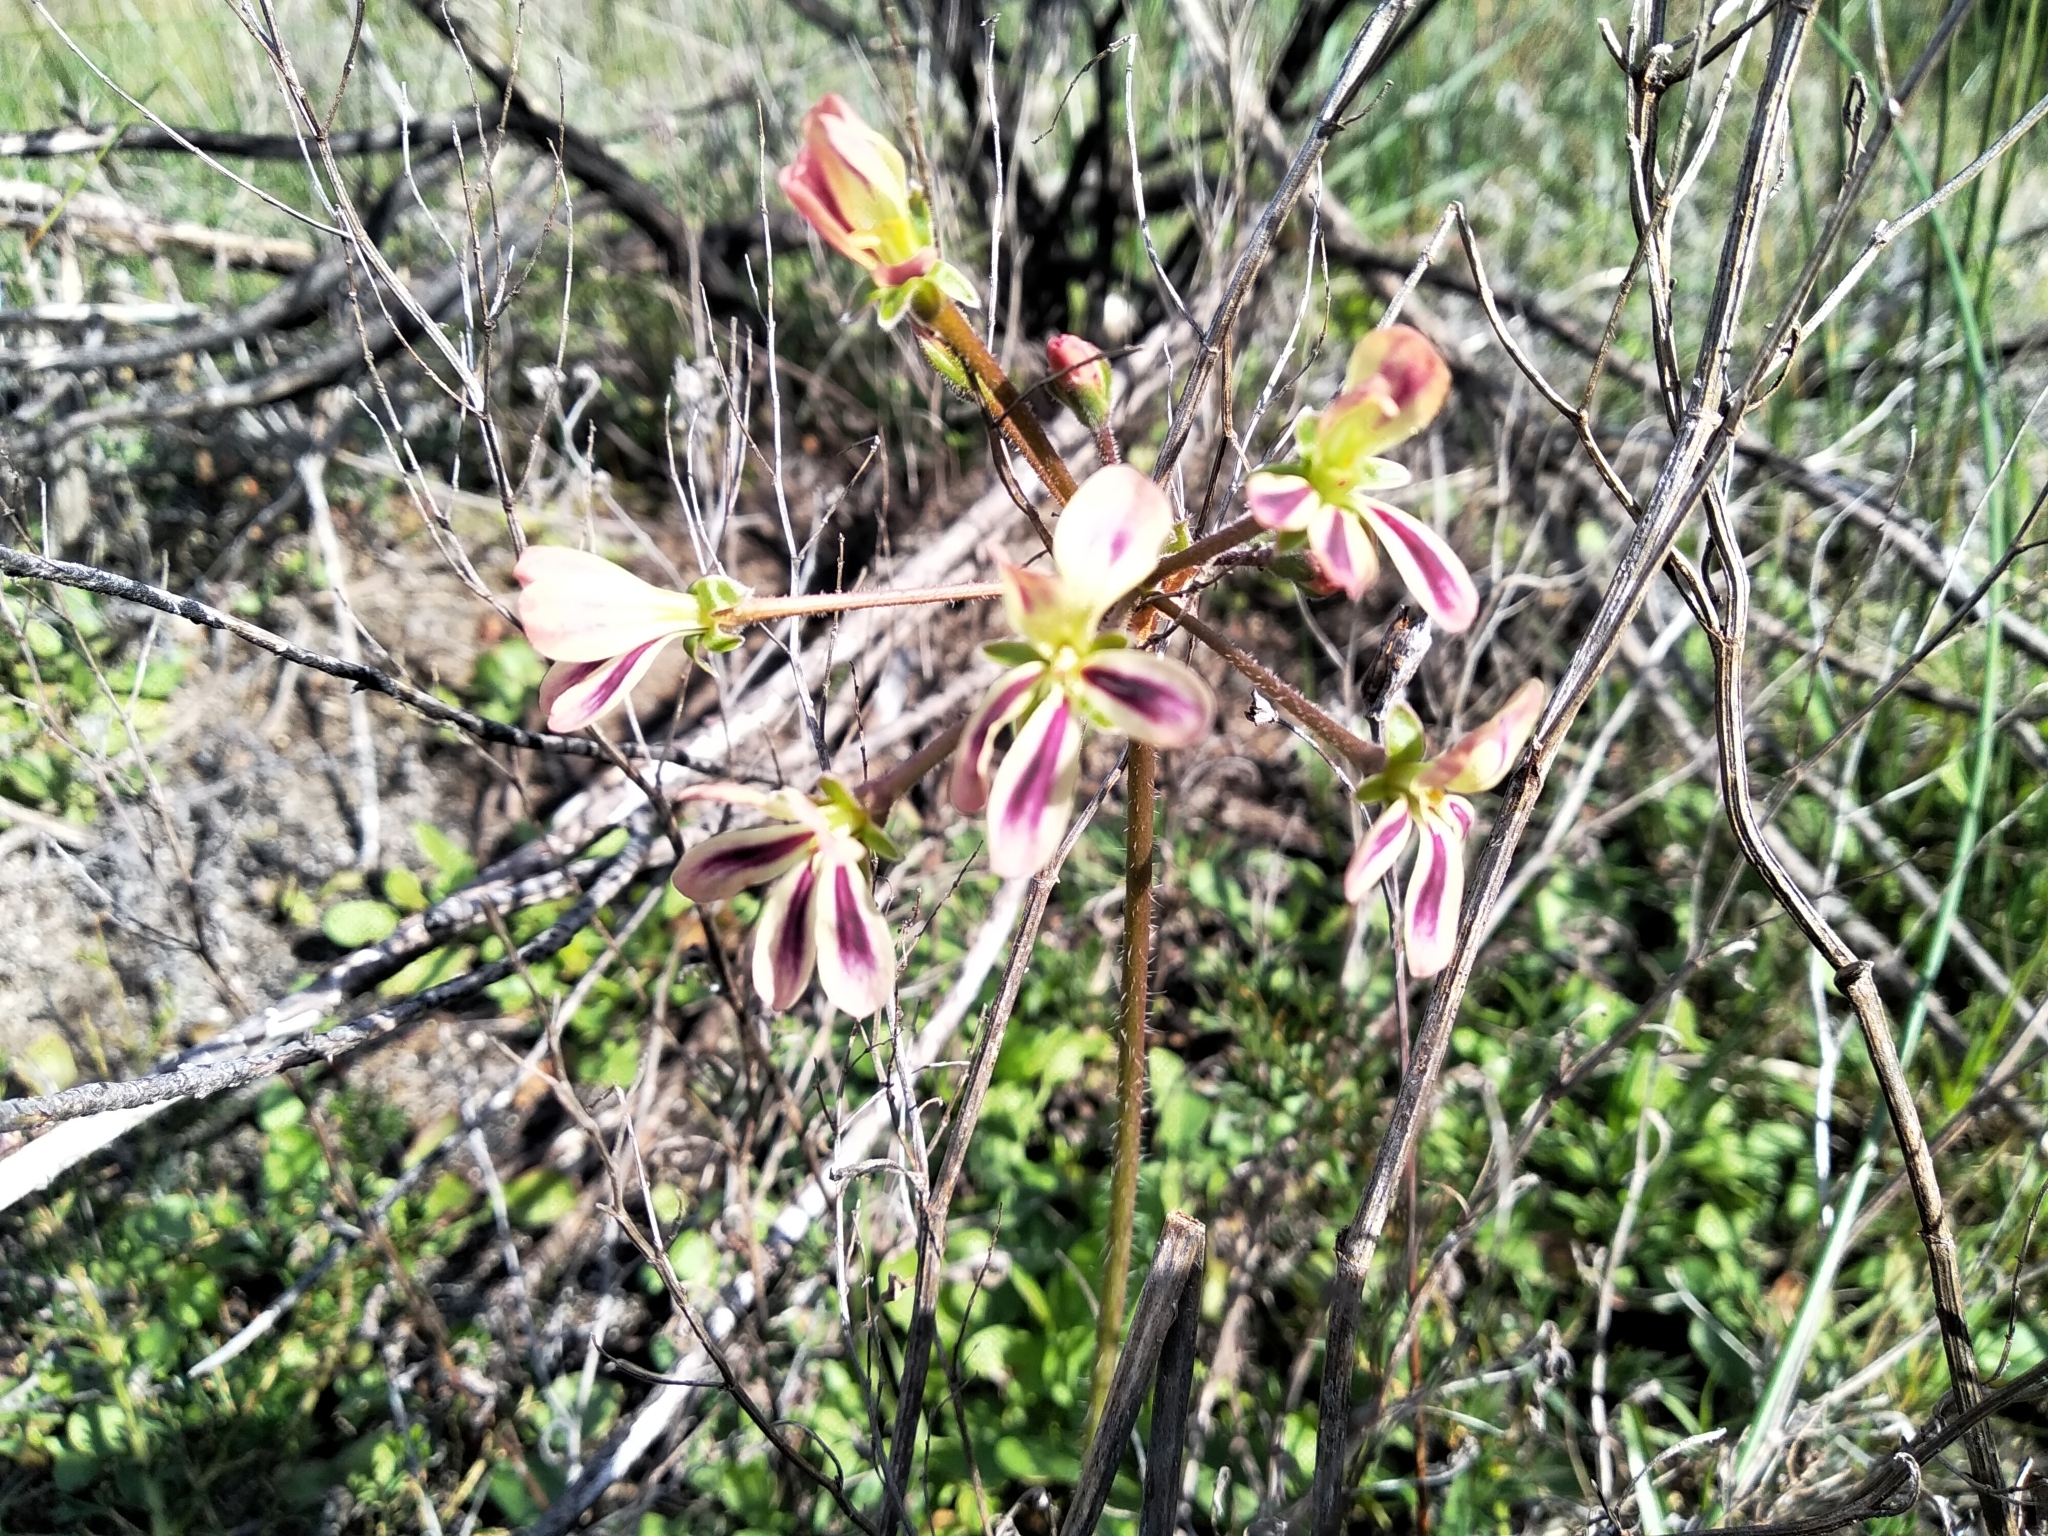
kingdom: Plantae
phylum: Tracheophyta
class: Magnoliopsida
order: Geraniales
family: Geraniaceae
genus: Pelargonium
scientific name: Pelargonium triste
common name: Night-scent pelargonium
